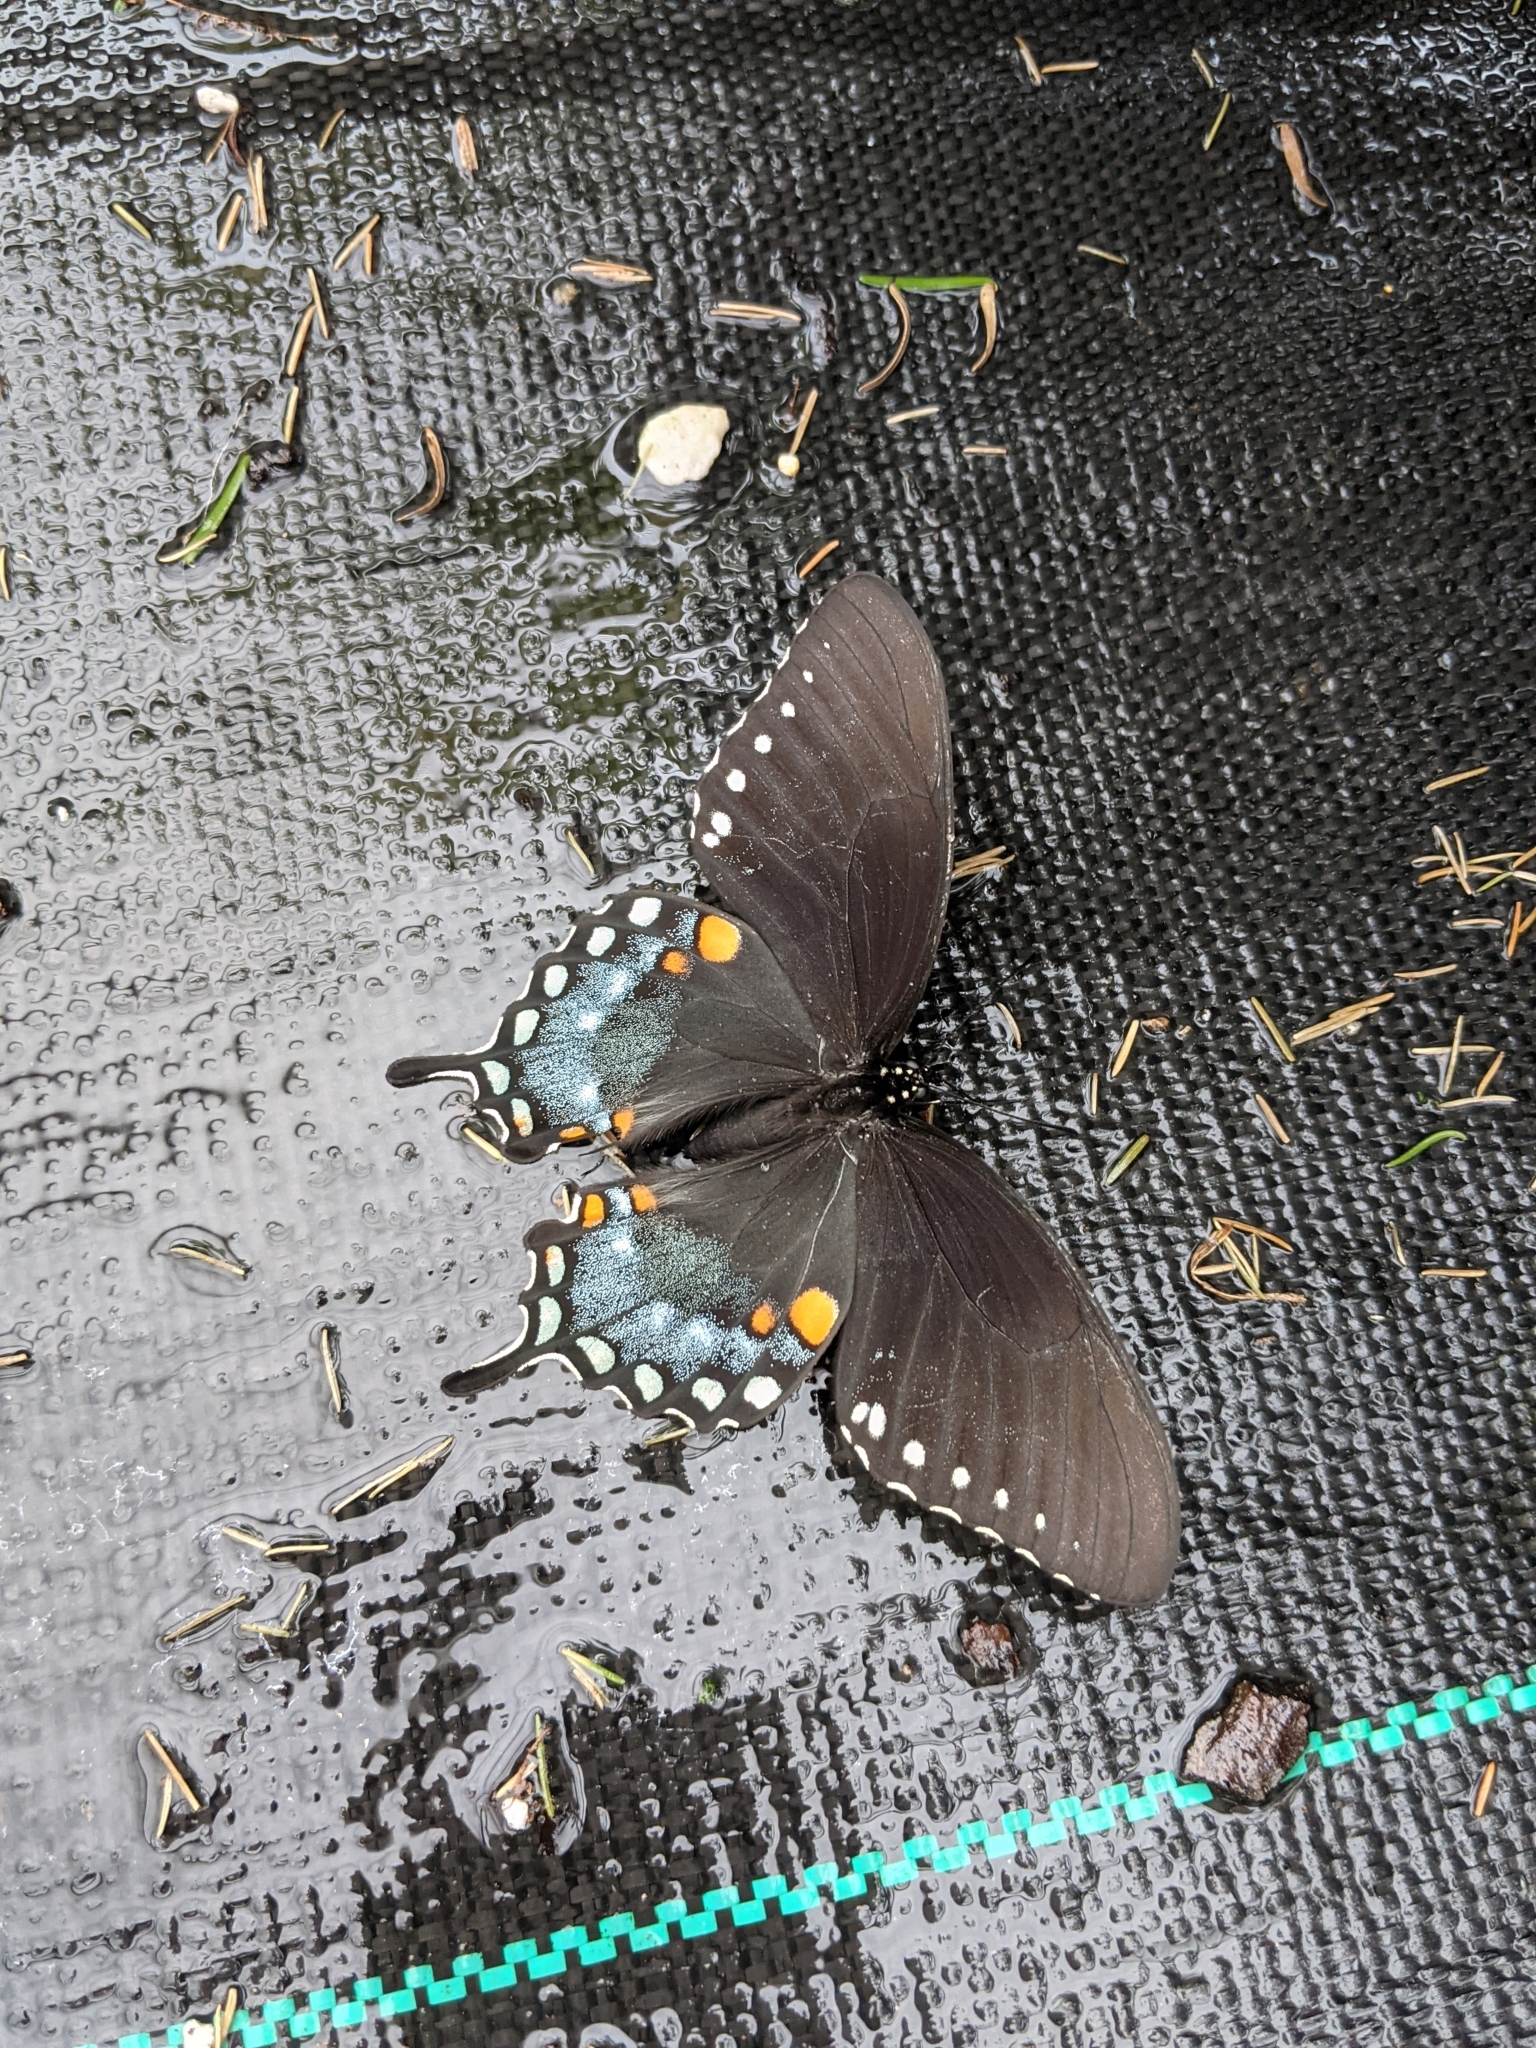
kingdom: Animalia
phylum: Arthropoda
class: Insecta
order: Lepidoptera
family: Papilionidae
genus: Papilio
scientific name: Papilio troilus
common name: Spicebush swallowtail
